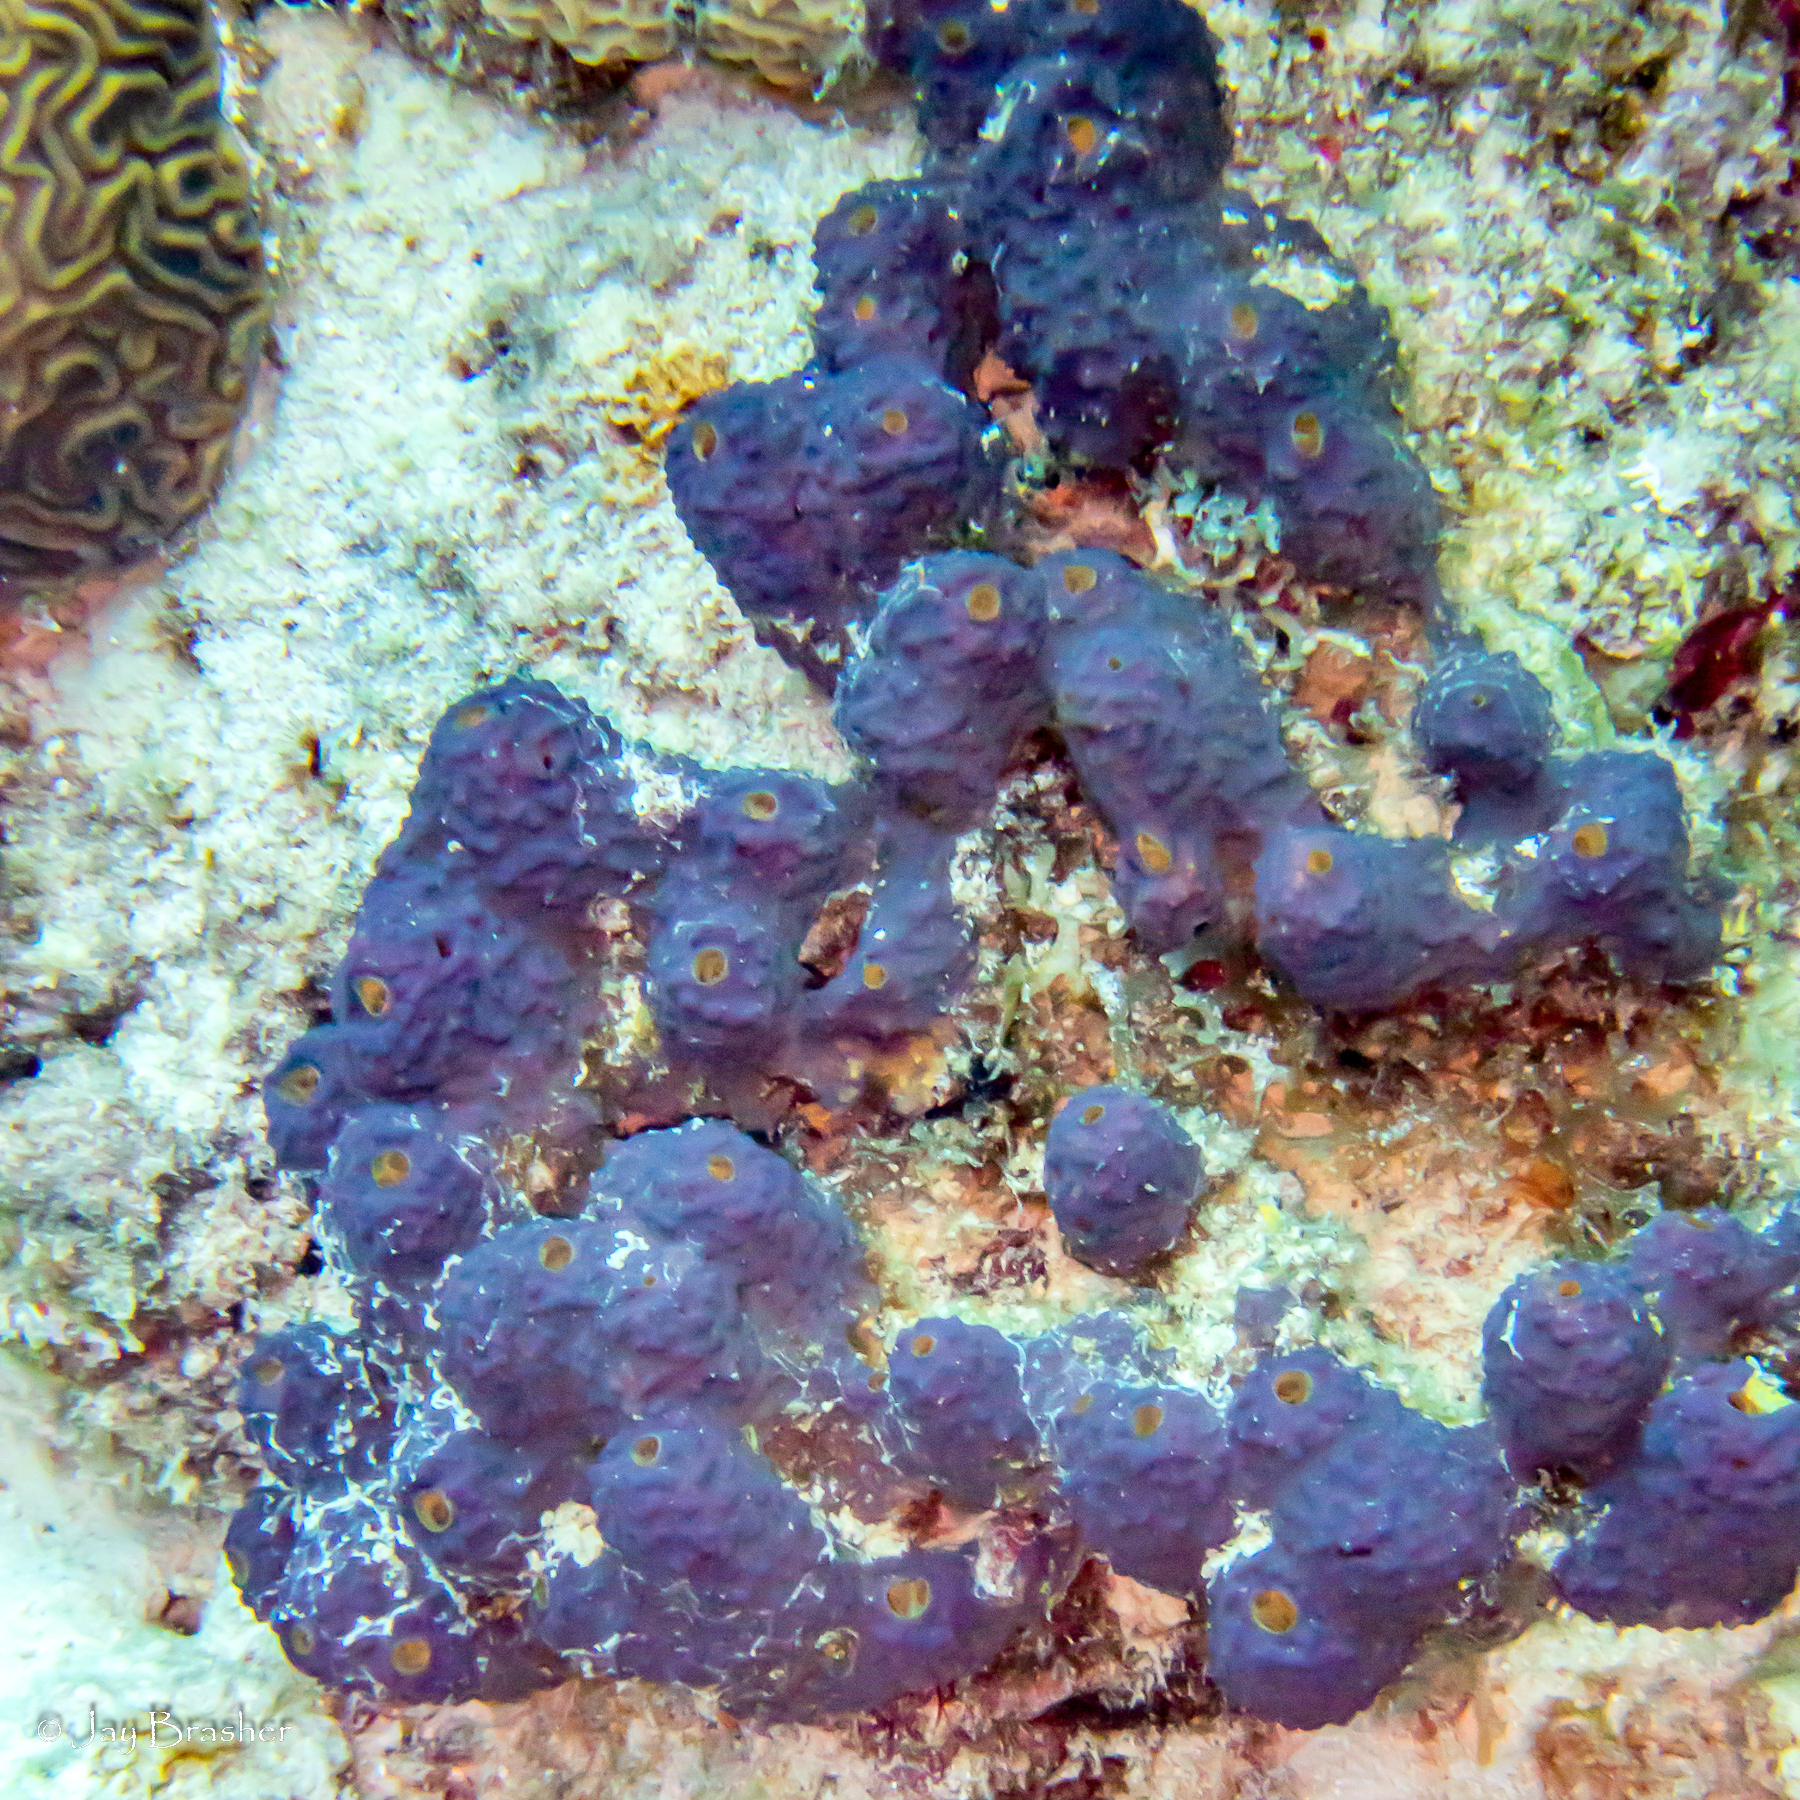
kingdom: Animalia
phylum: Porifera
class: Demospongiae
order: Verongiida
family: Aplysinidae
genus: Aiolochroia
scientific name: Aiolochroia crassa
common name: Branching tube sponge
